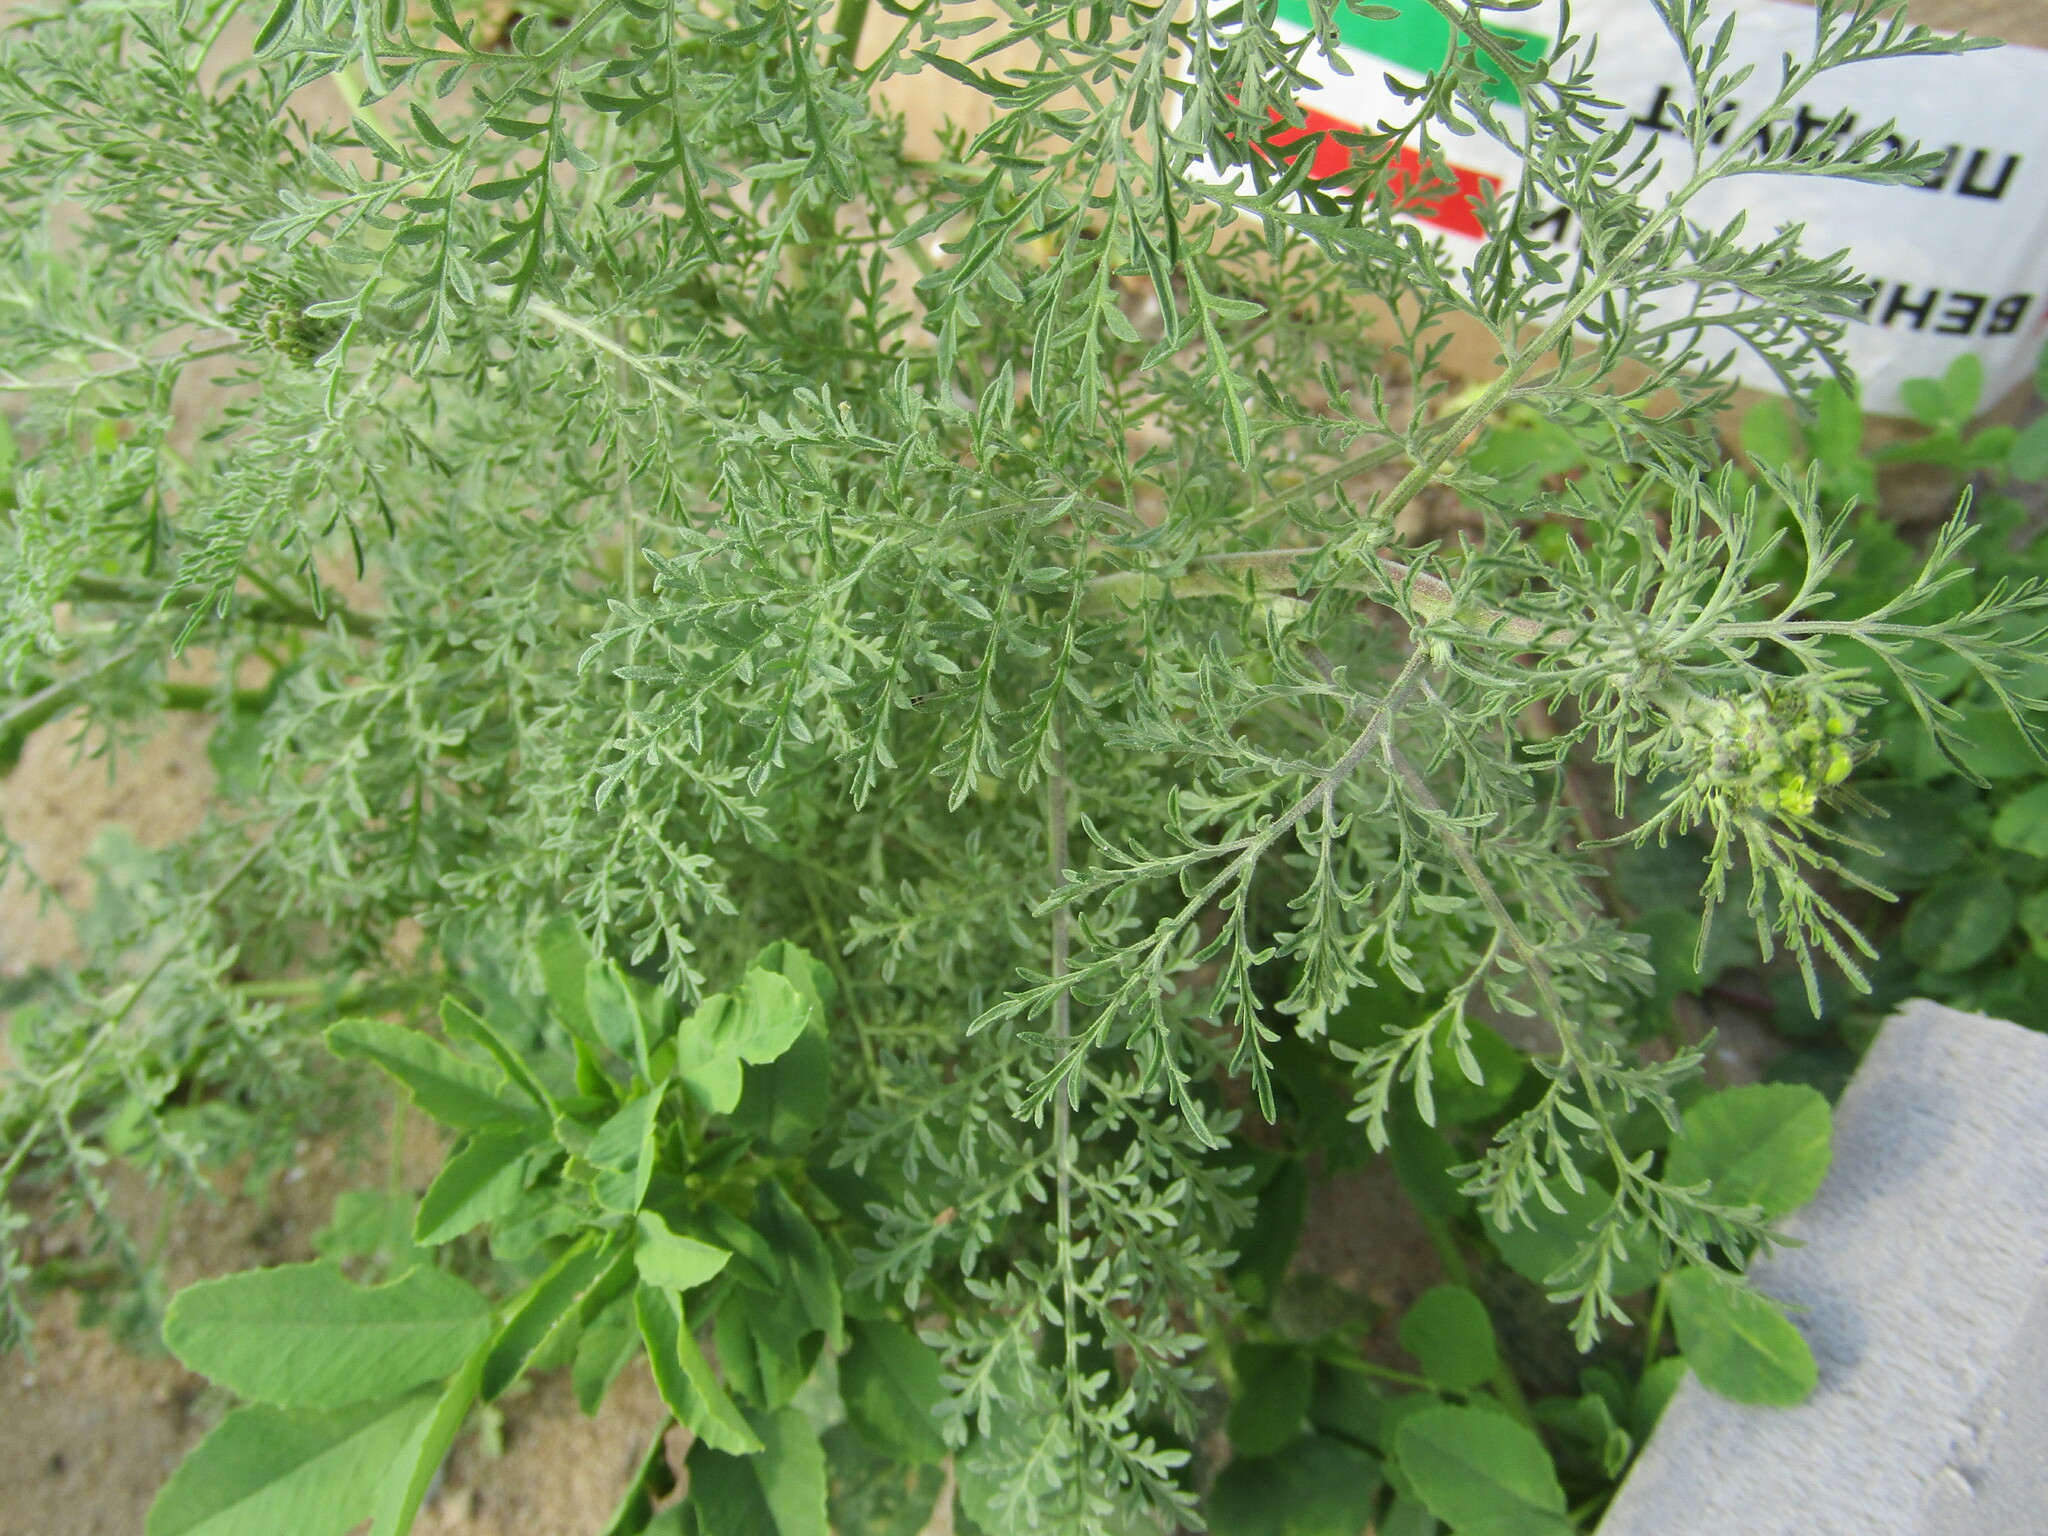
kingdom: Plantae
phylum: Tracheophyta
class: Magnoliopsida
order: Brassicales
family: Brassicaceae
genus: Descurainia
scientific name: Descurainia sophia
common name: Flixweed
